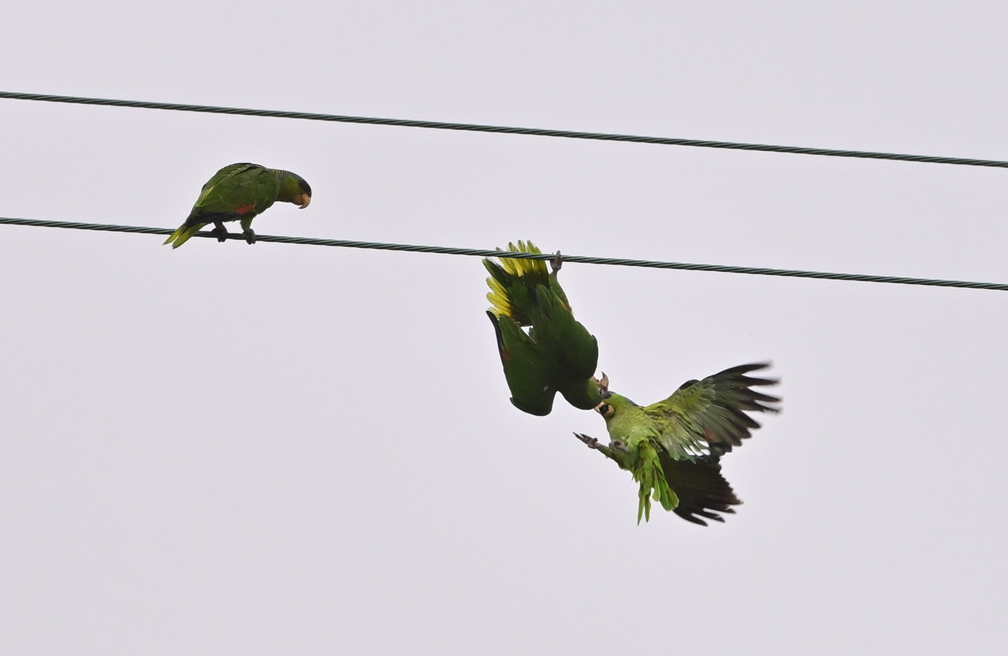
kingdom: Animalia
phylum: Chordata
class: Aves
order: Psittaciformes
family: Psittacidae
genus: Amazona
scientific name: Amazona finschi
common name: Lilac-crowned amazon
